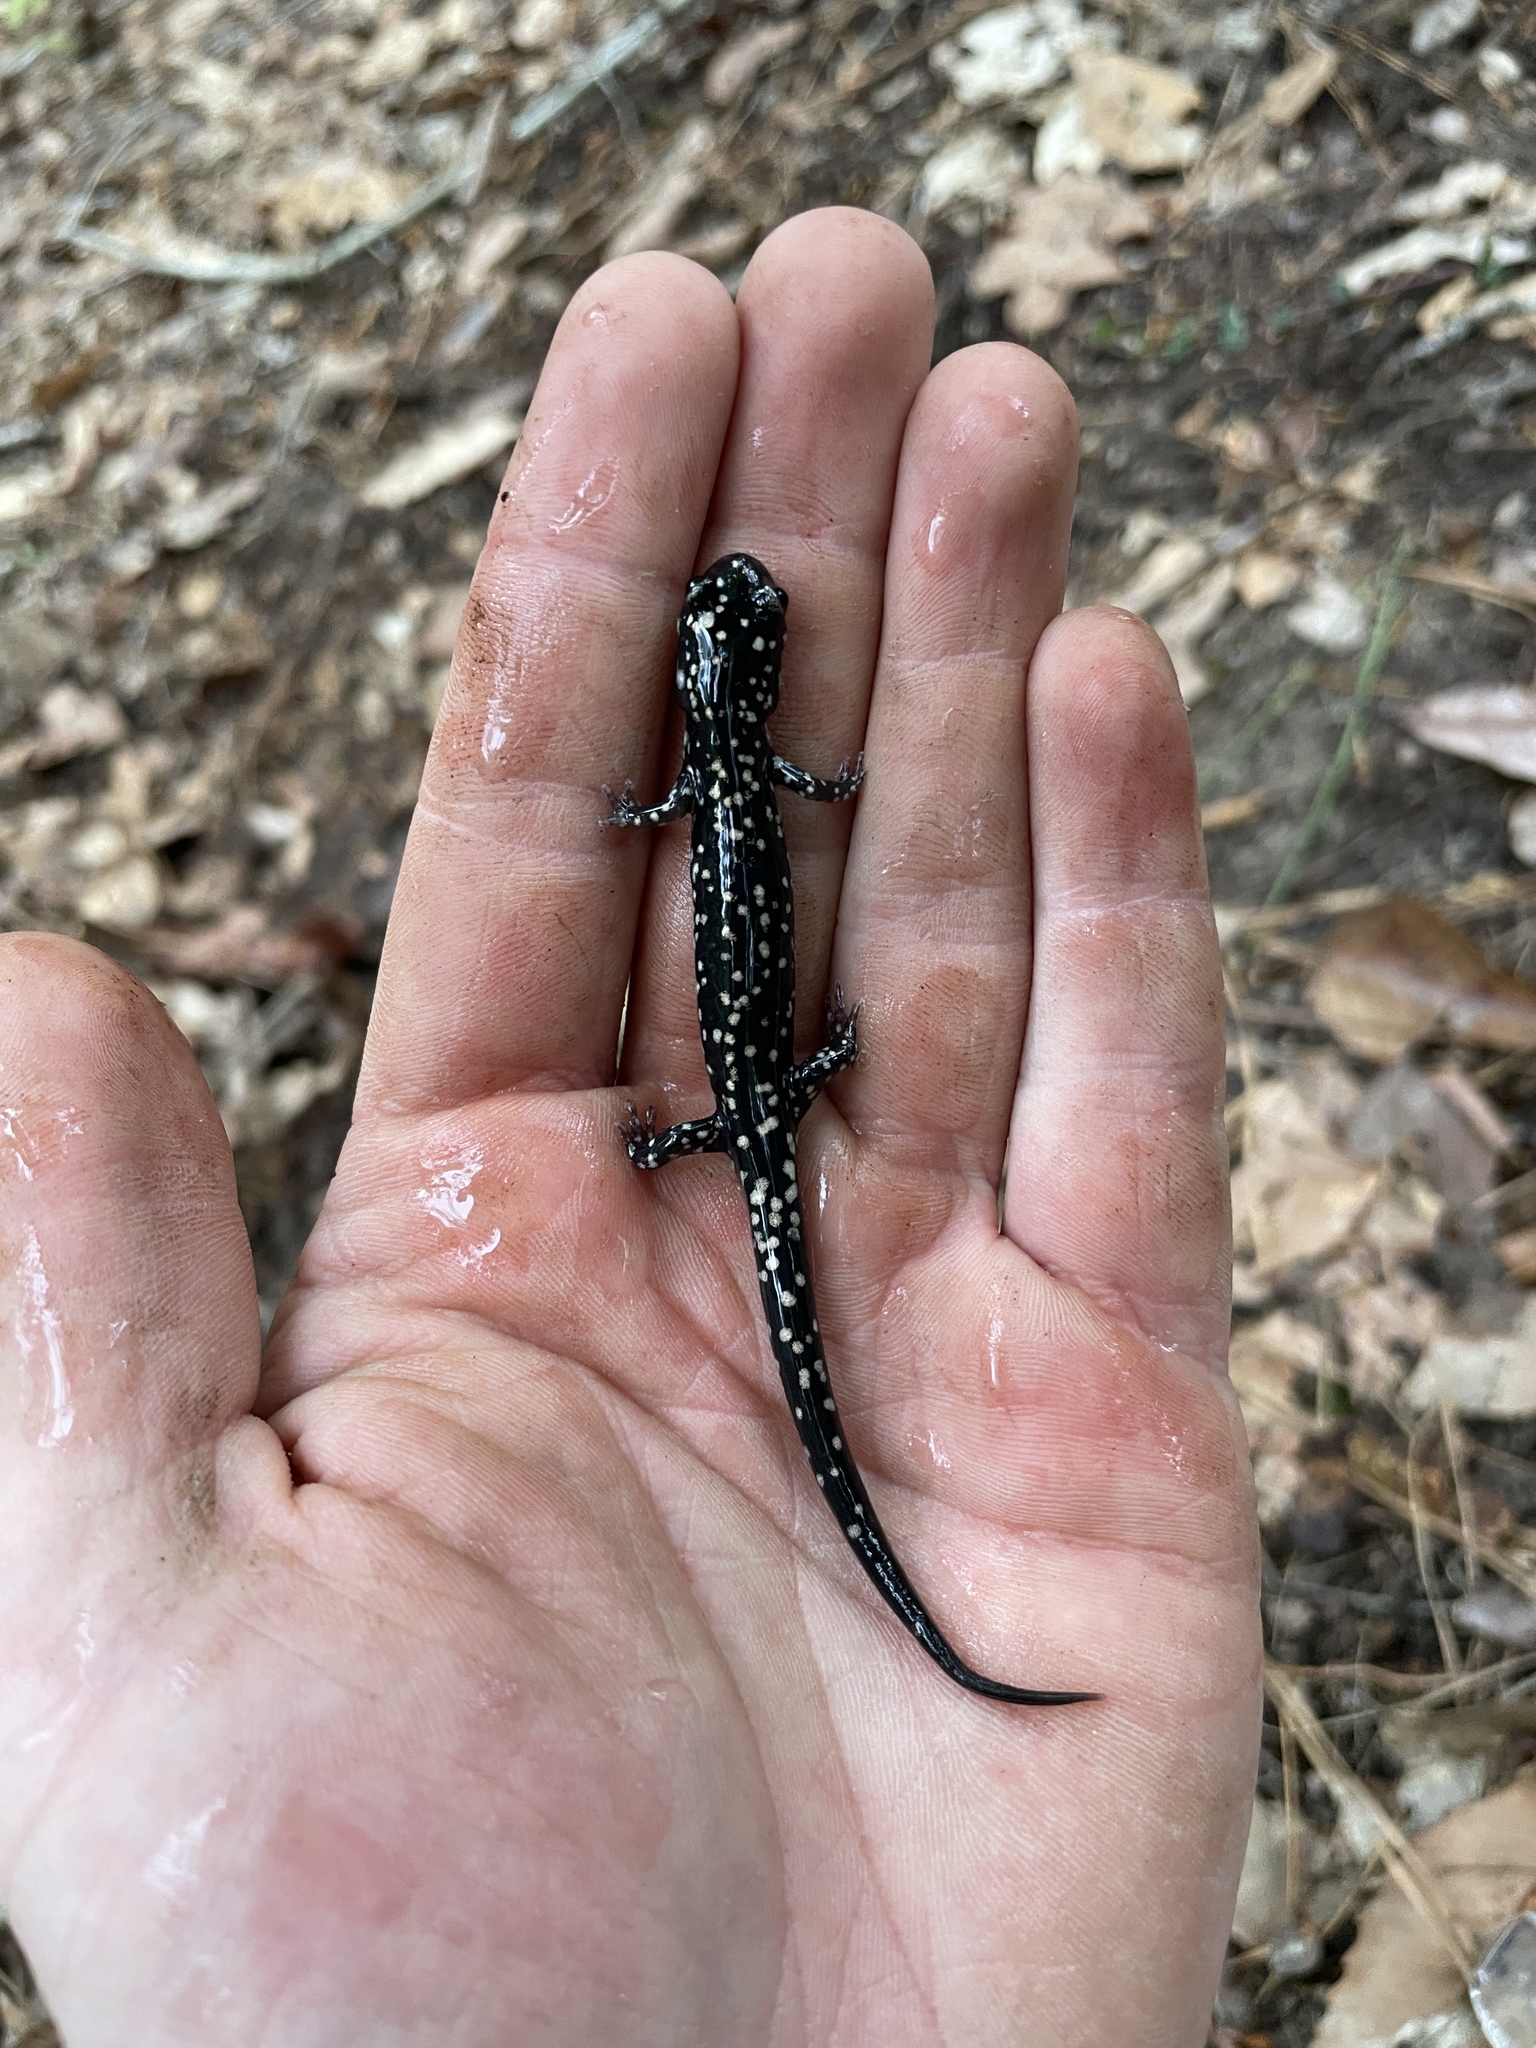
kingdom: Animalia
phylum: Chordata
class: Amphibia
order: Caudata
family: Plethodontidae
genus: Plethodon
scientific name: Plethodon kisatchie
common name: Louisiana slimy salamander
